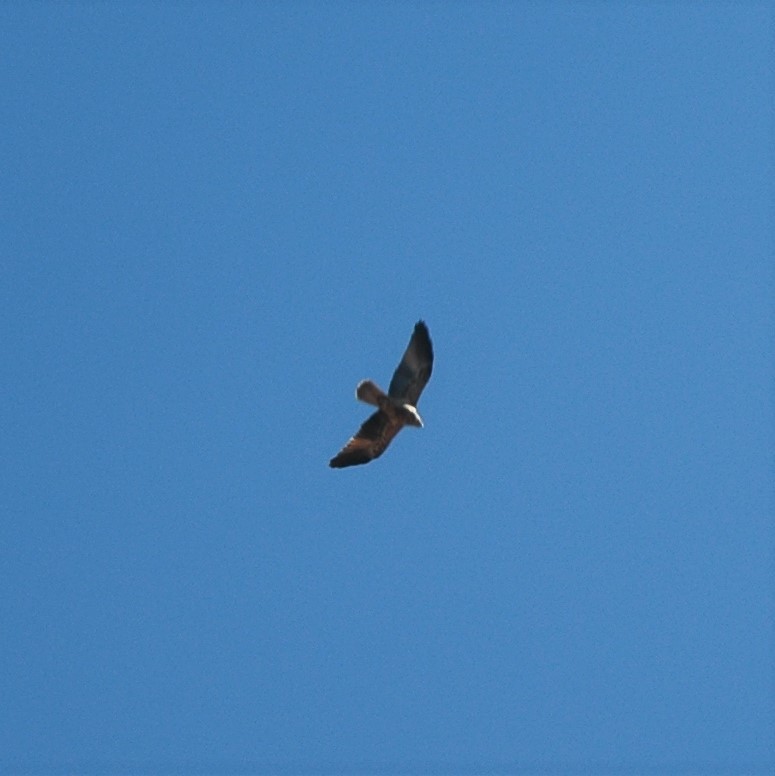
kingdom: Animalia
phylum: Chordata
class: Aves
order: Accipitriformes
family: Accipitridae
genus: Haliastur
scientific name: Haliastur sphenurus
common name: Whistling kite
